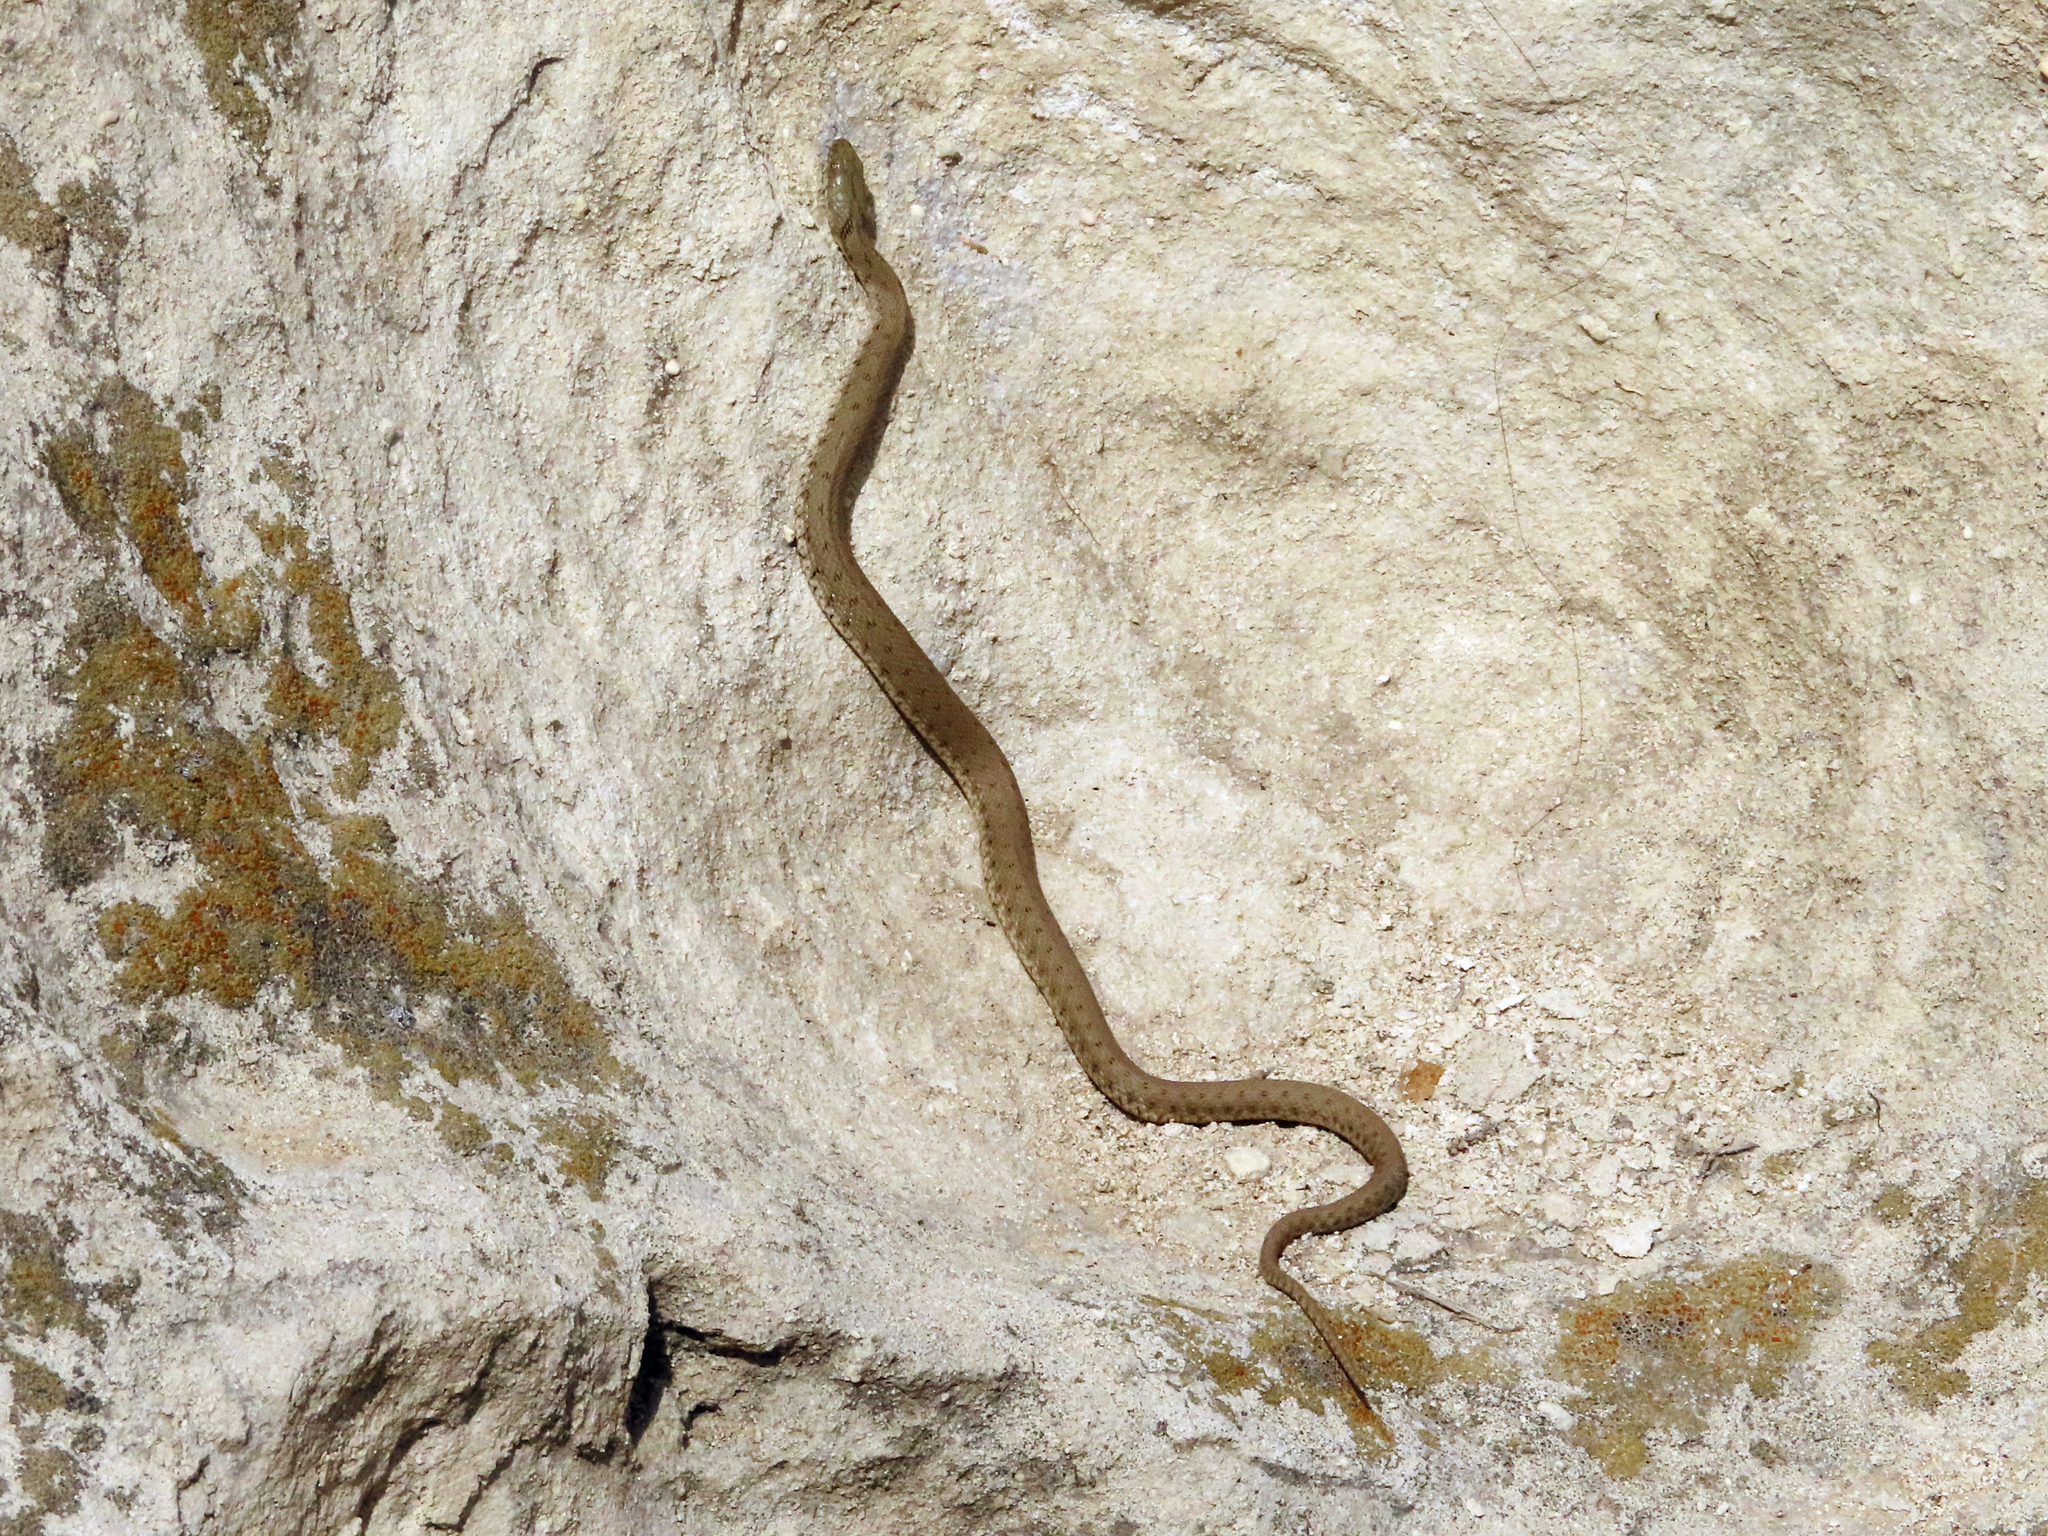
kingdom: Animalia
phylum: Chordata
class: Squamata
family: Colubridae
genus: Natrix
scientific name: Natrix tessellata
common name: Dice snake
